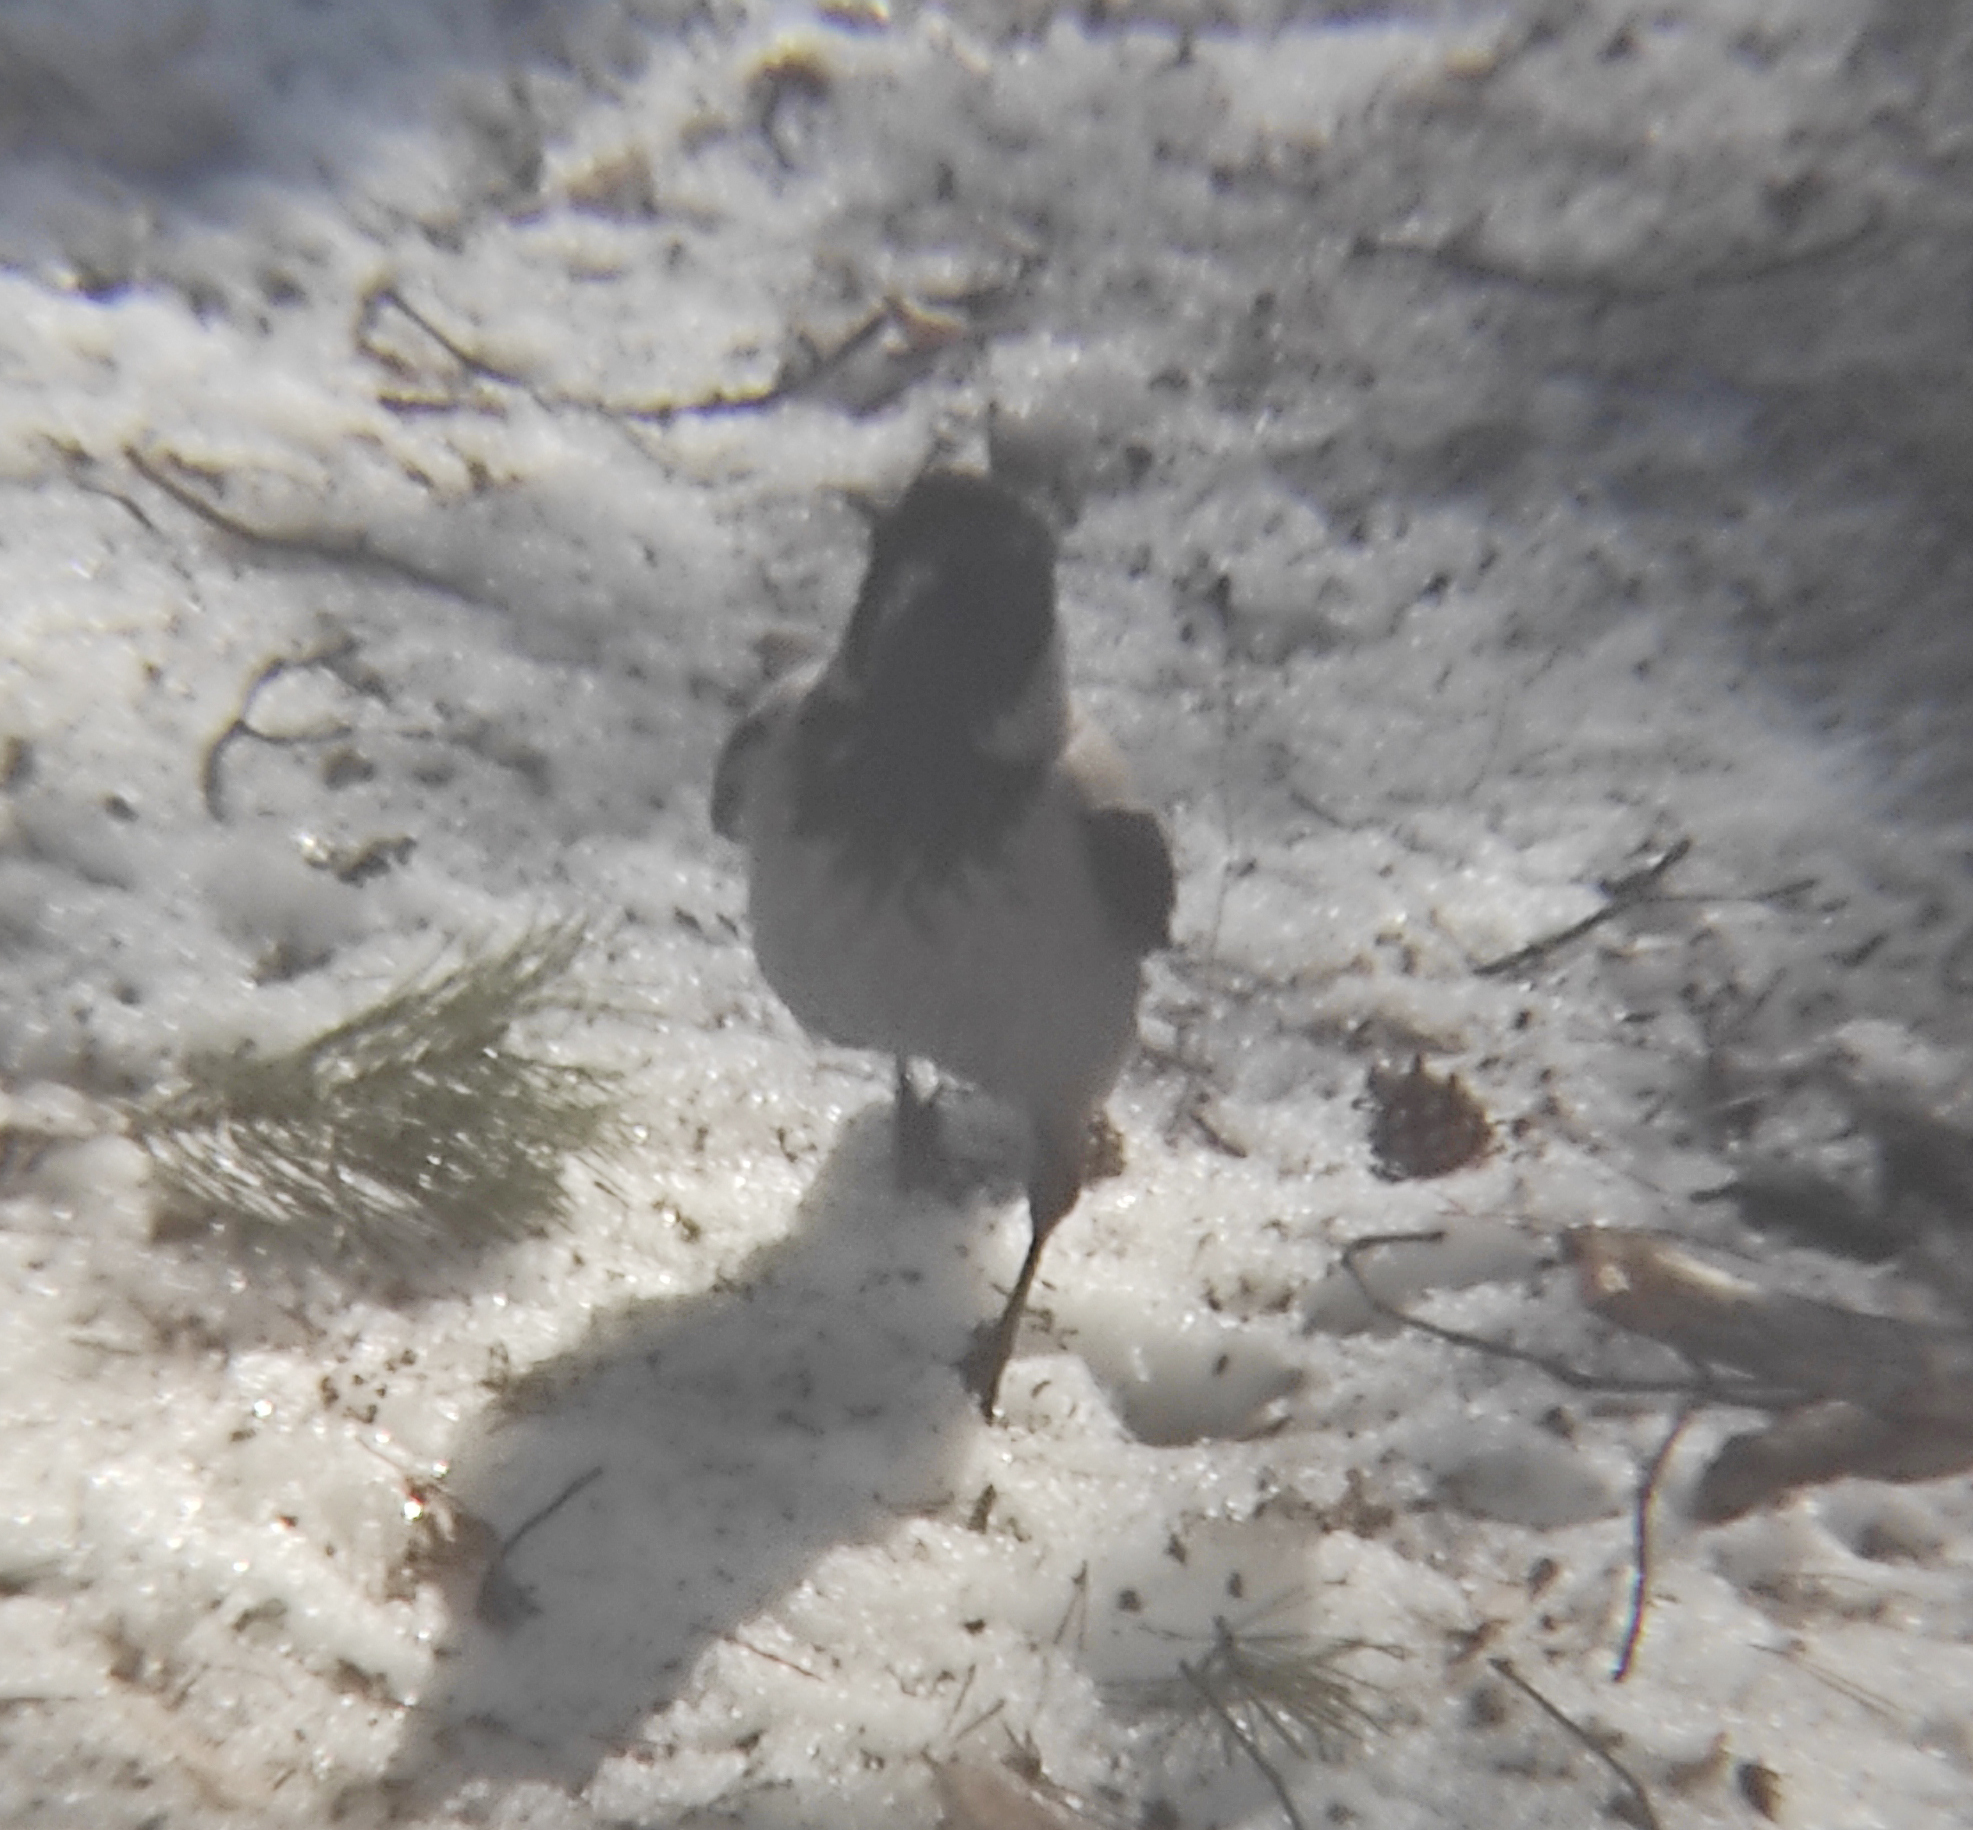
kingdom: Animalia
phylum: Chordata
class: Aves
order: Passeriformes
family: Corvidae
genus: Corvus
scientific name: Corvus cornix
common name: Hooded crow
